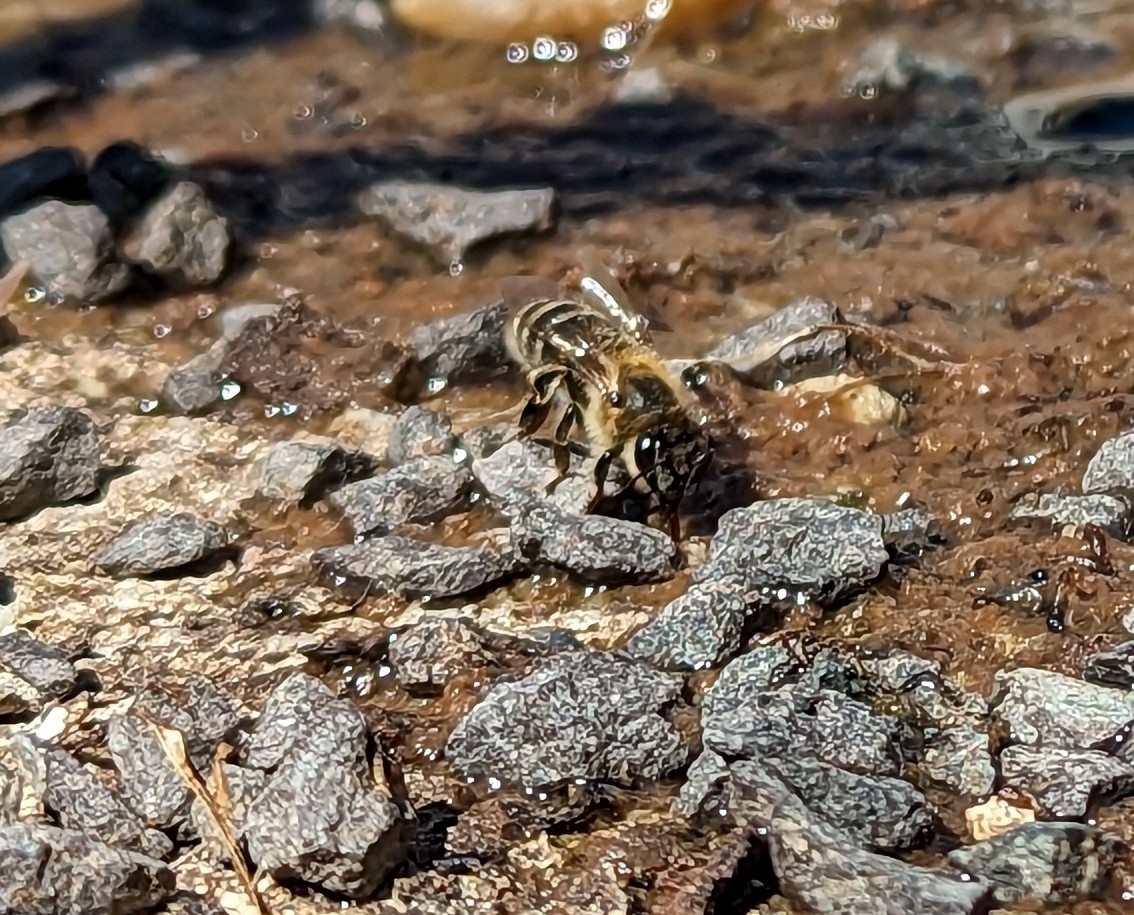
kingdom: Animalia
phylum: Arthropoda
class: Insecta
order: Hymenoptera
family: Apidae
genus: Apis
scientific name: Apis mellifera
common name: Honey bee
